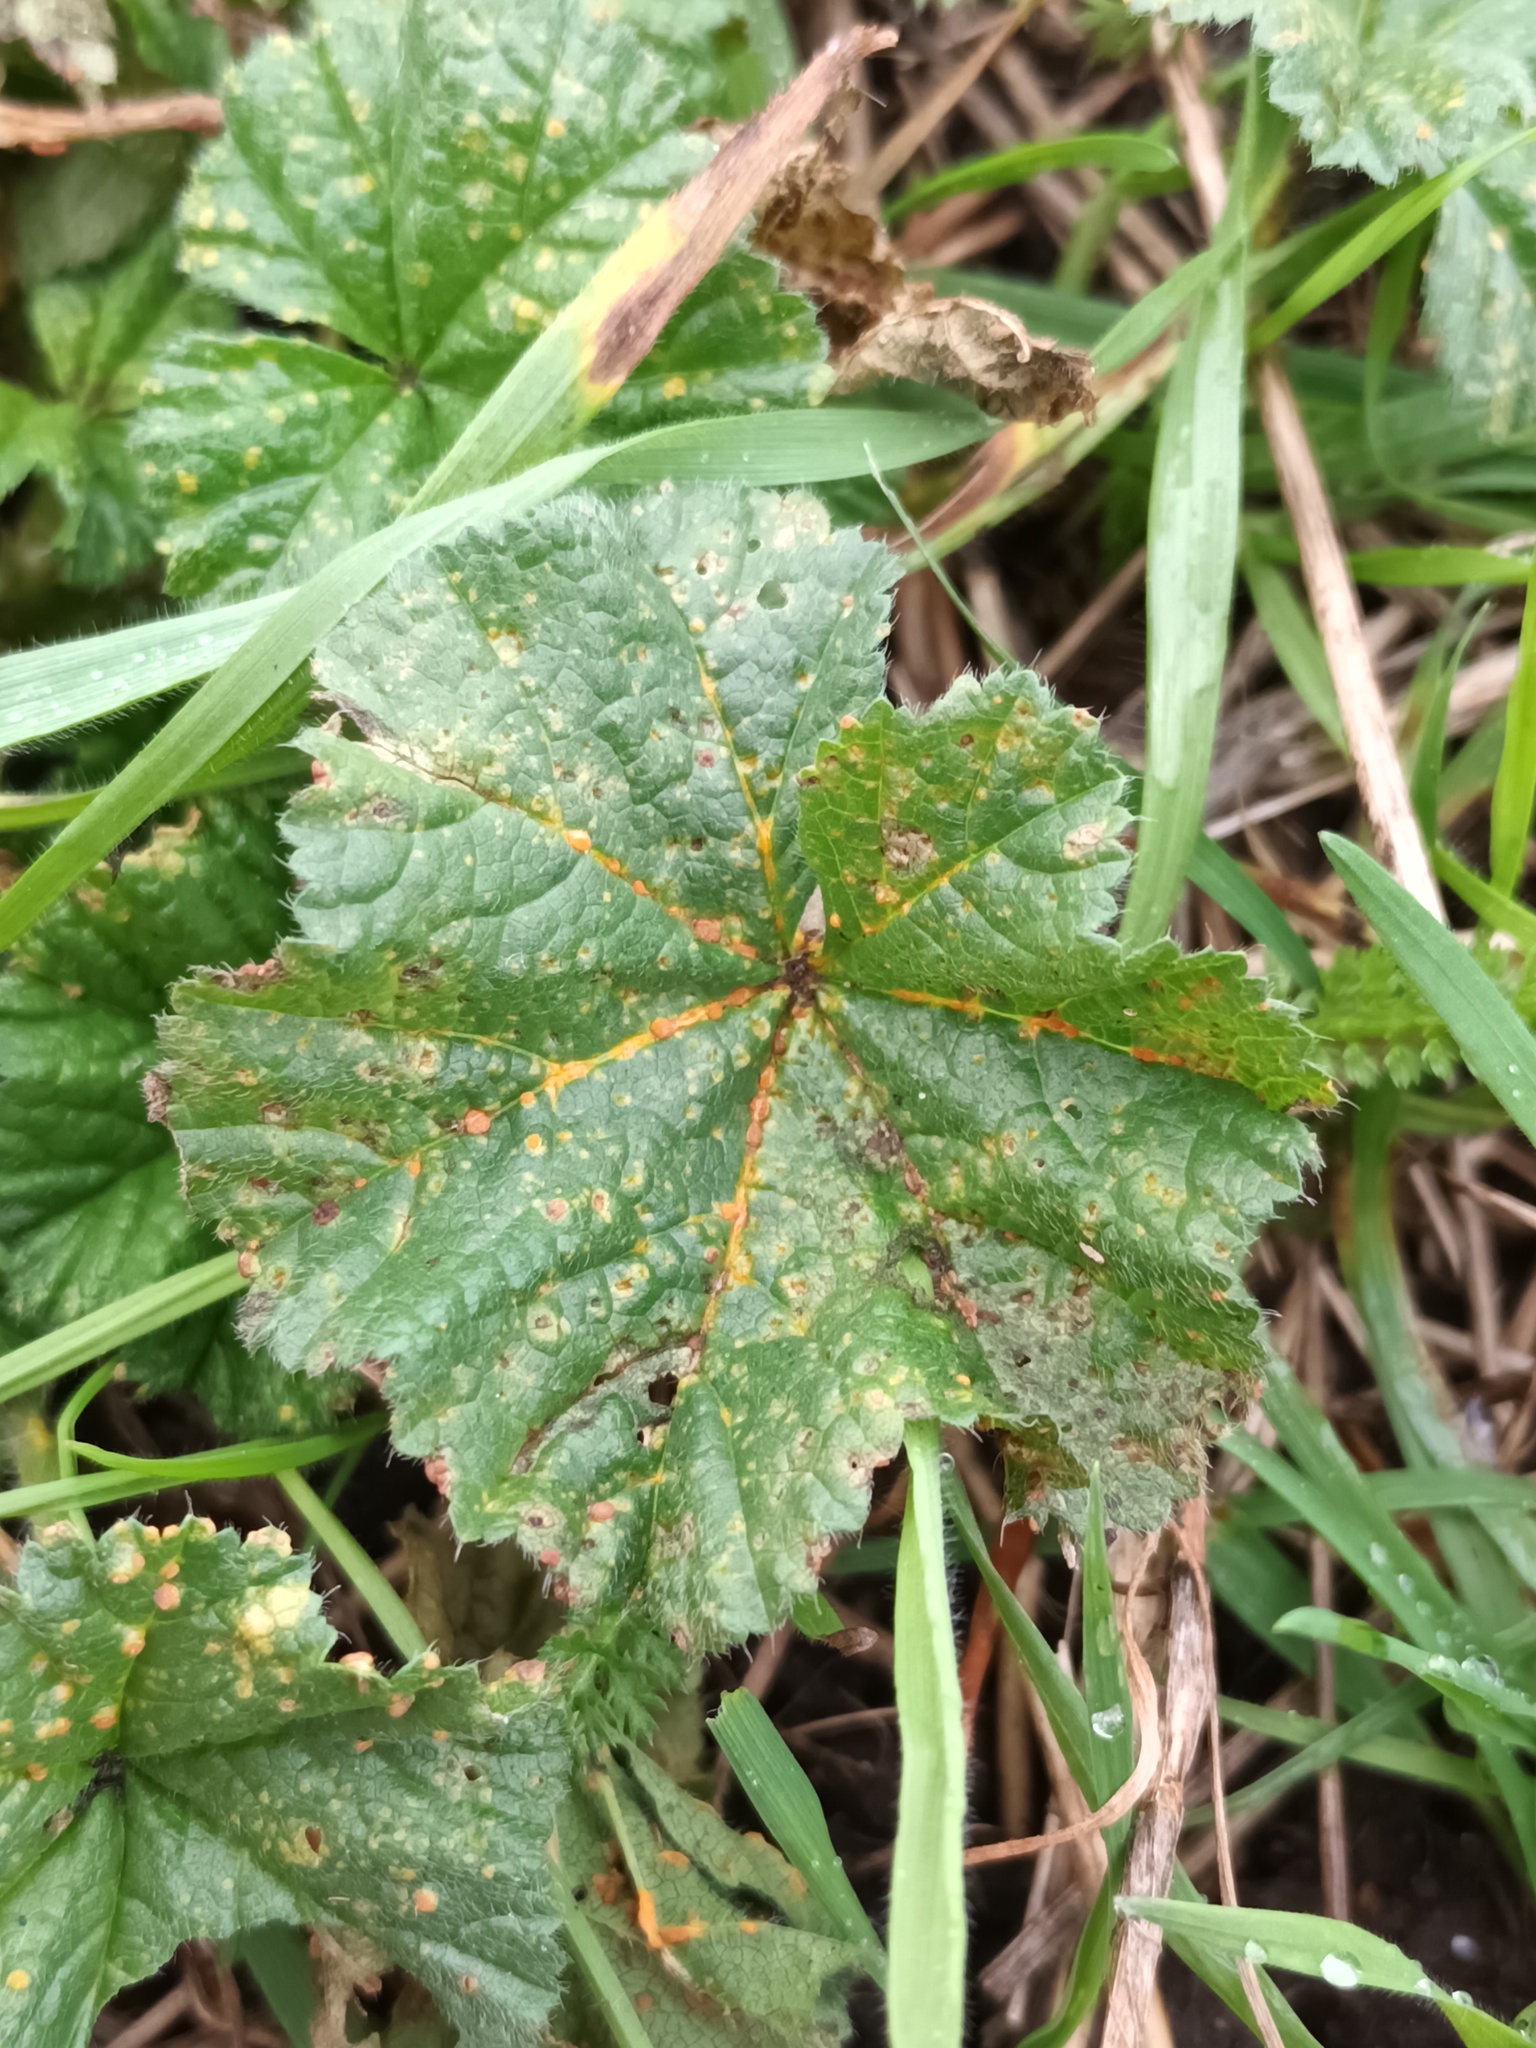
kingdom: Fungi
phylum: Basidiomycota
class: Pucciniomycetes
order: Pucciniales
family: Pucciniaceae
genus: Puccinia
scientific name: Puccinia malvacearum
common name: Hollyhock rust
